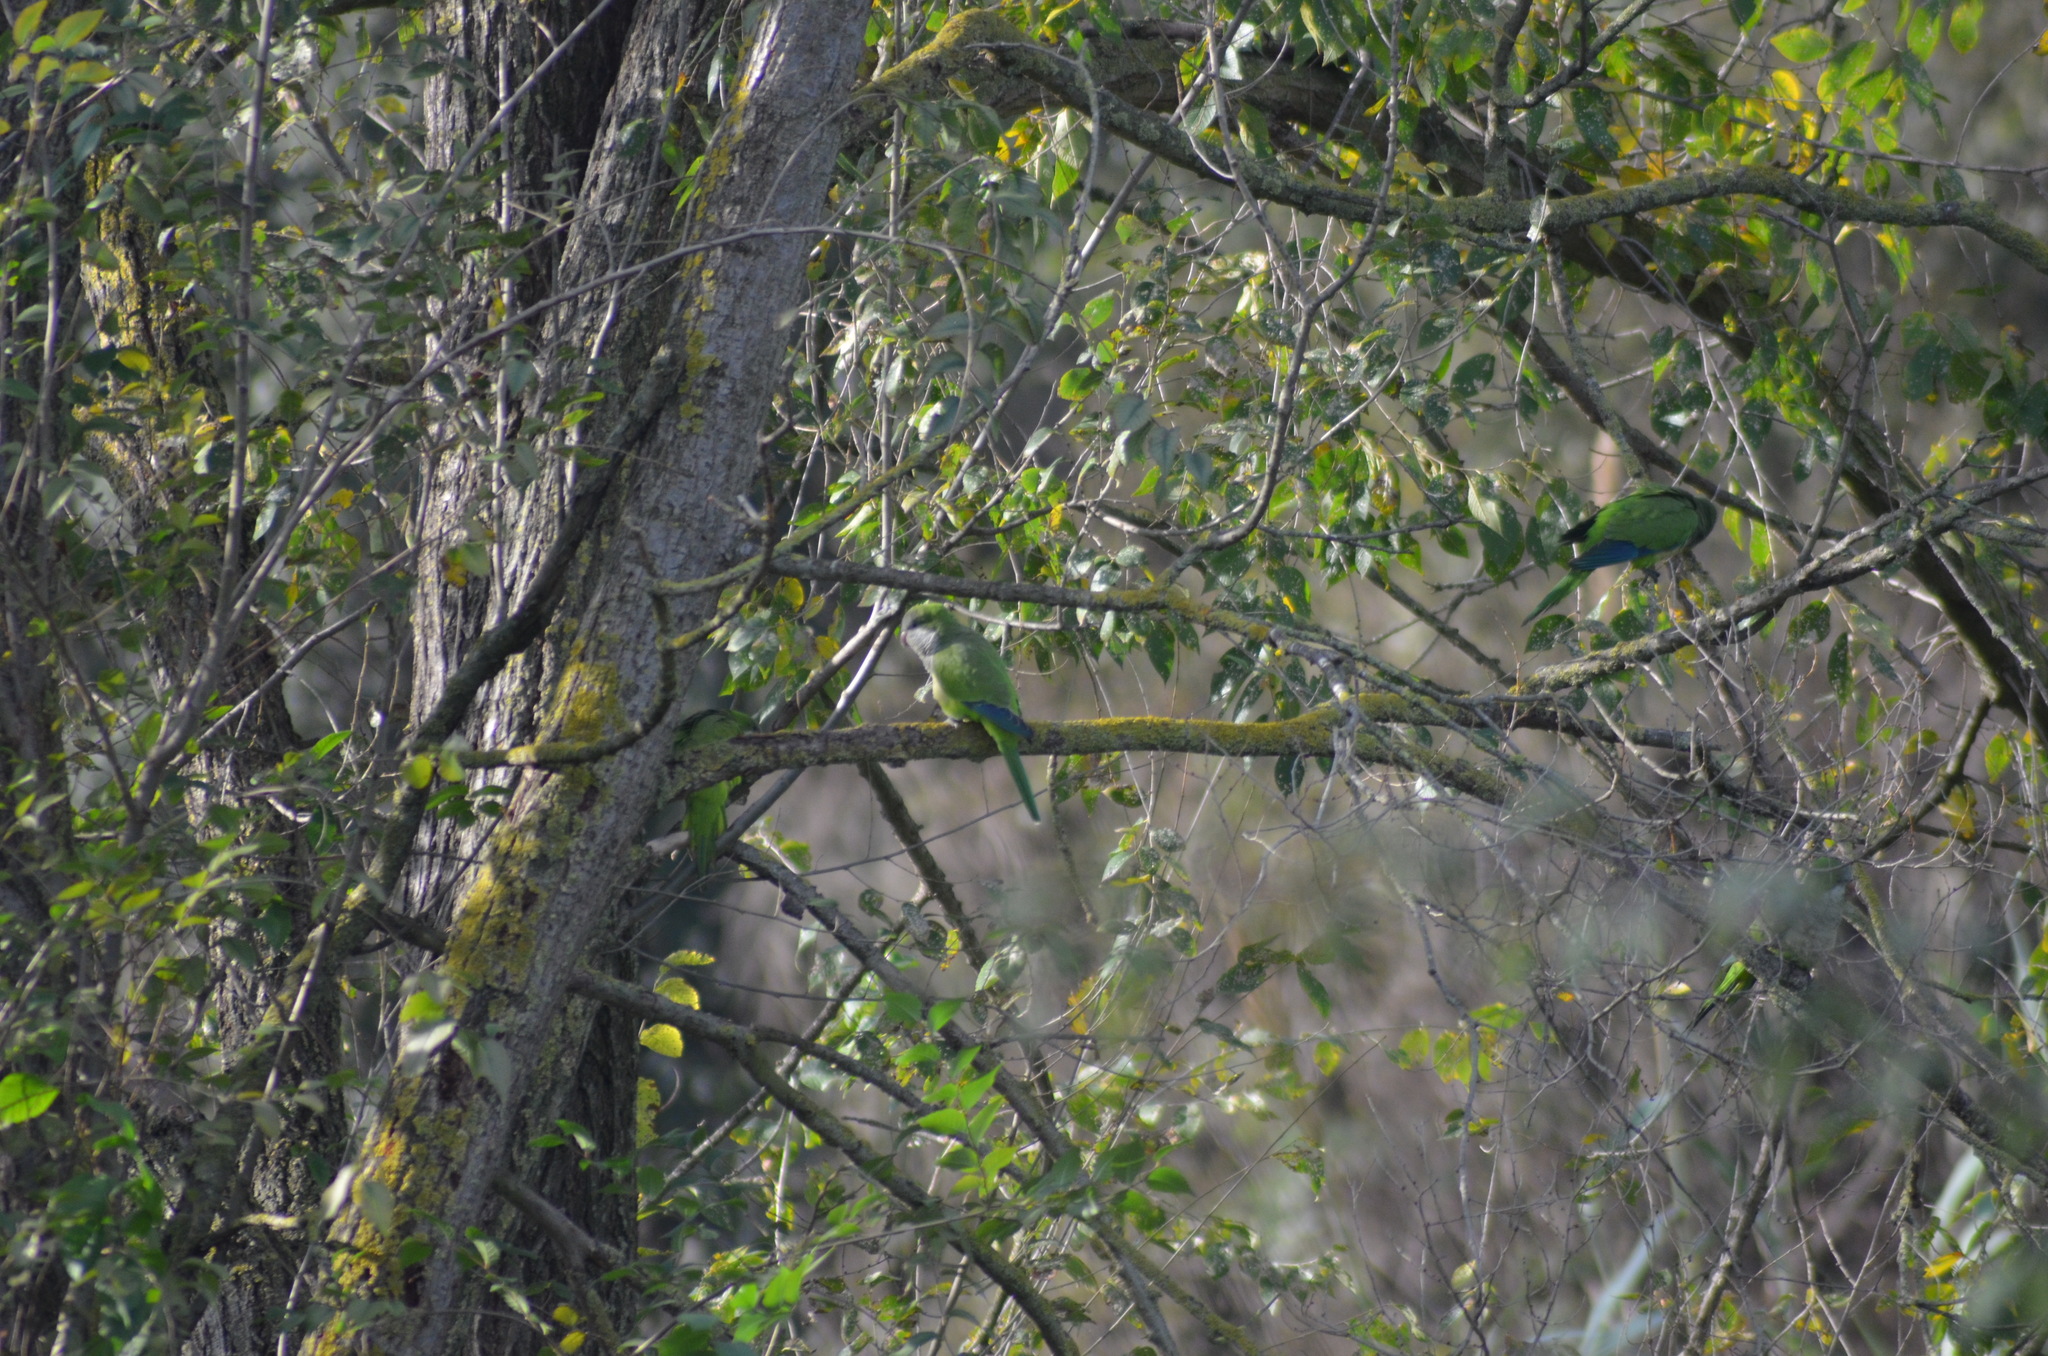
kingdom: Animalia
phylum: Chordata
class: Aves
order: Psittaciformes
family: Psittacidae
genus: Myiopsitta
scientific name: Myiopsitta monachus
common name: Monk parakeet
